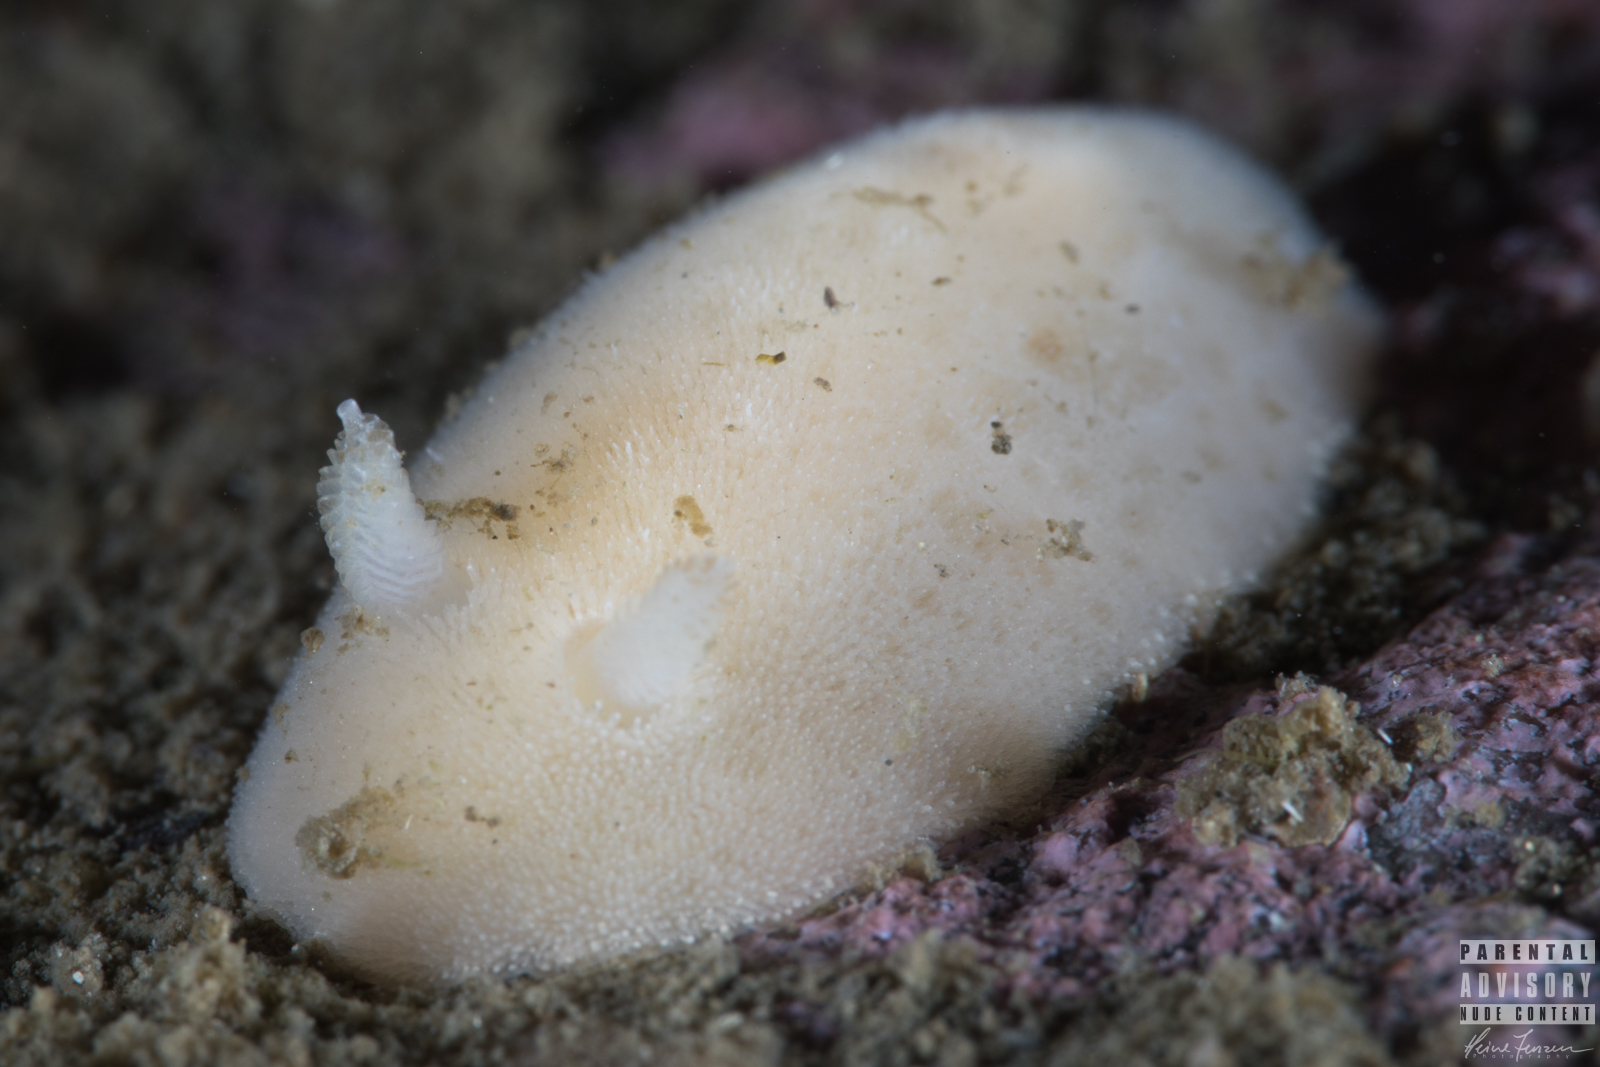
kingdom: Animalia
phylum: Mollusca
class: Gastropoda
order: Nudibranchia
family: Discodorididae
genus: Jorunna
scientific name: Jorunna tomentosa
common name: Grey sea slug
